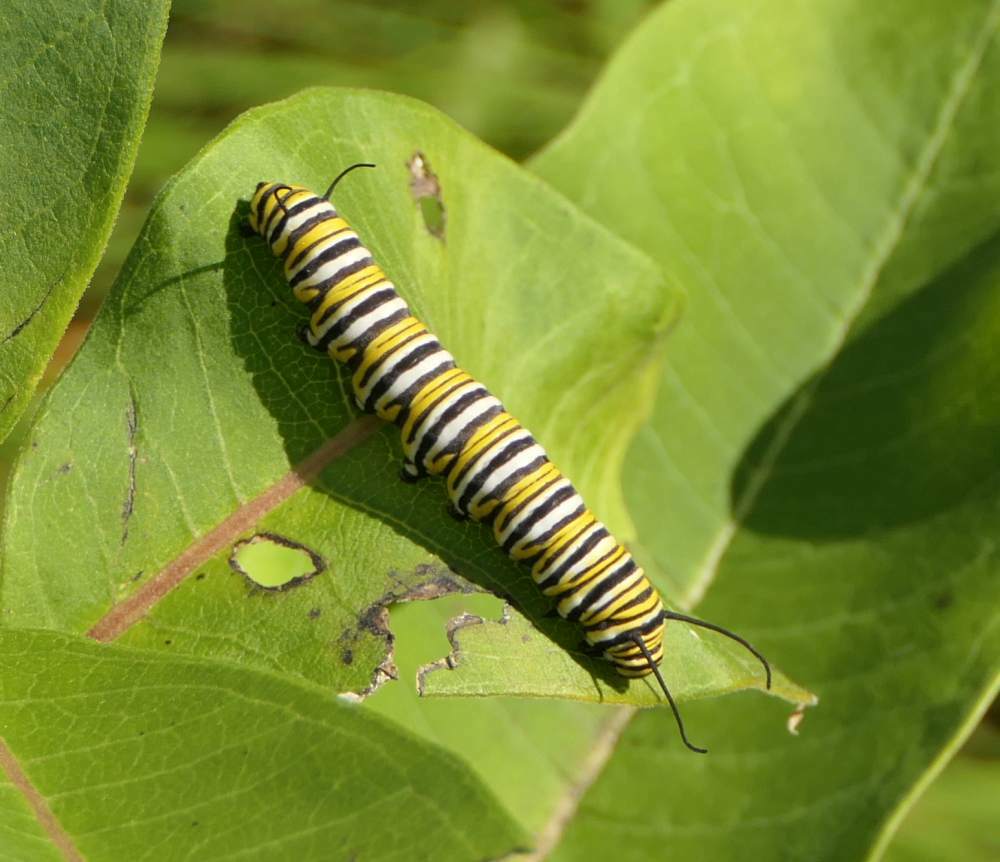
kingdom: Animalia
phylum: Arthropoda
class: Insecta
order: Lepidoptera
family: Nymphalidae
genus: Danaus
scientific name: Danaus plexippus
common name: Monarch
